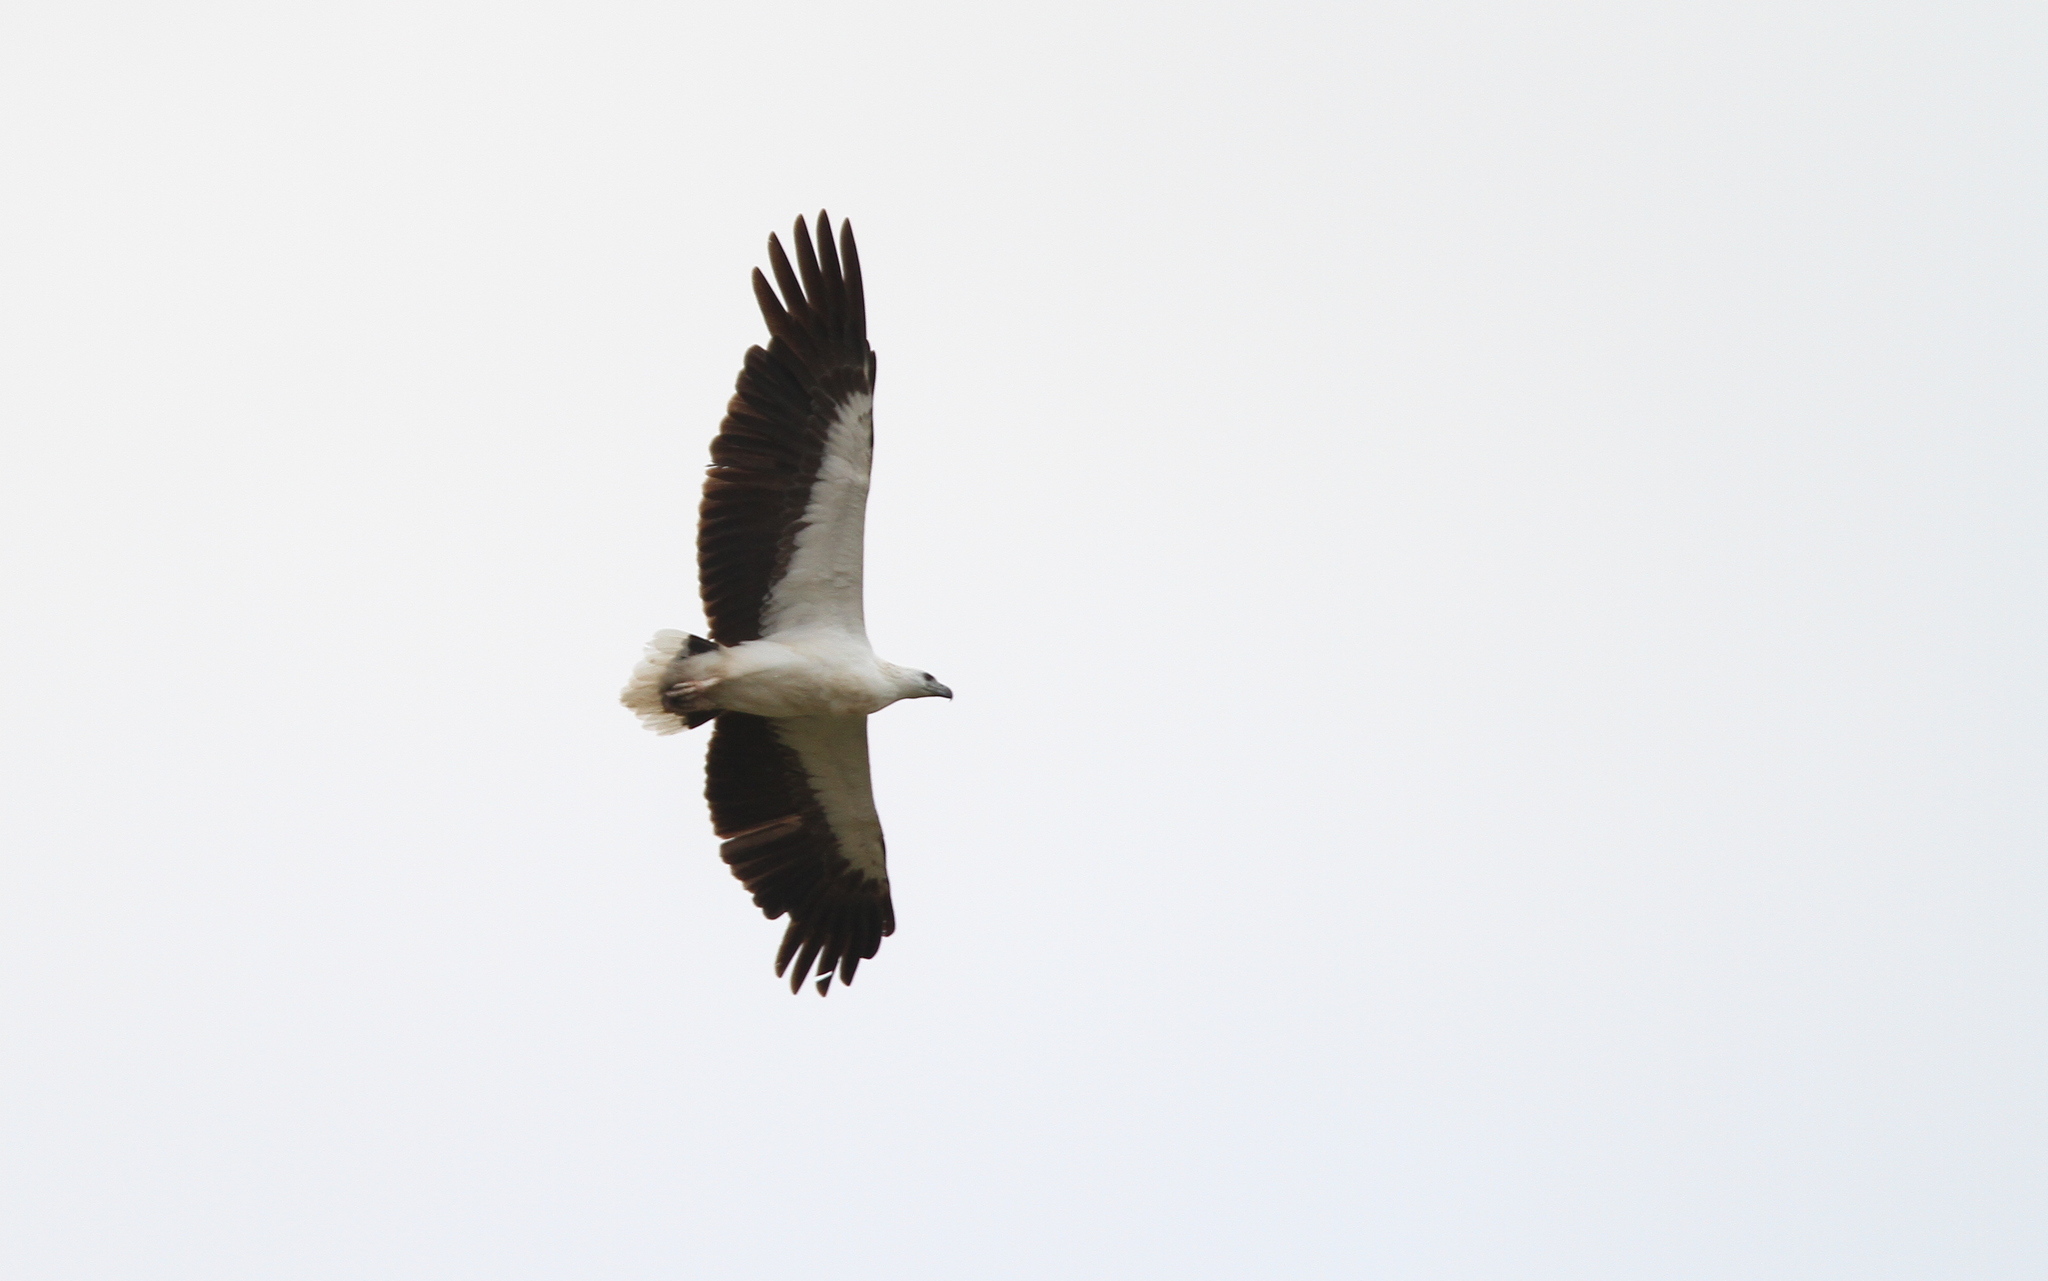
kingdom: Animalia
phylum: Chordata
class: Aves
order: Accipitriformes
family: Accipitridae
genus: Haliaeetus
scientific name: Haliaeetus leucogaster
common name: White-bellied sea eagle
